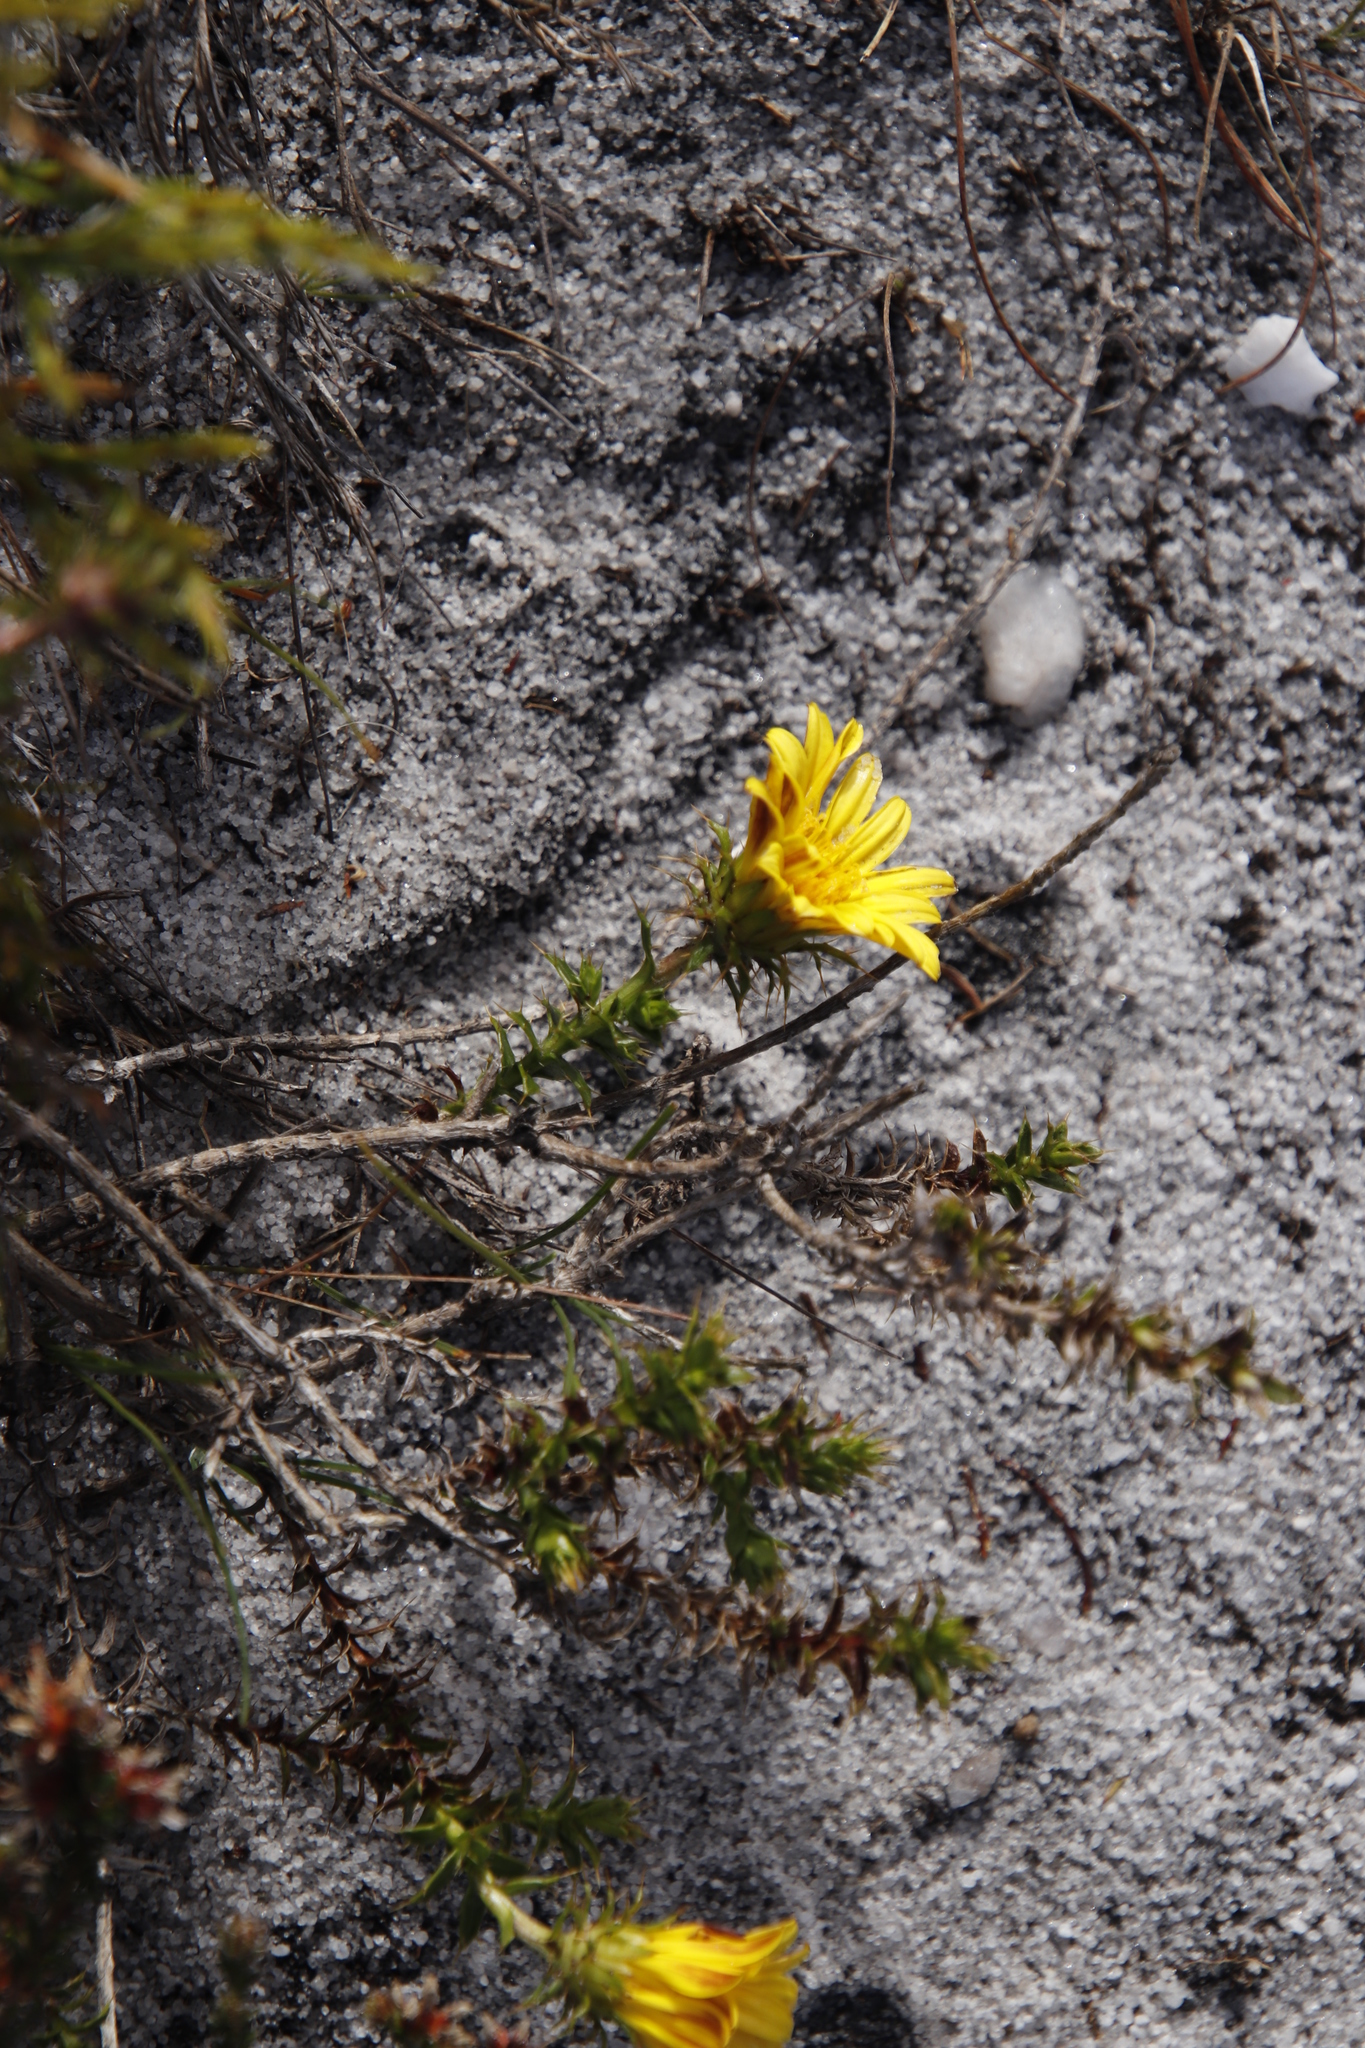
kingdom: Plantae
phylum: Tracheophyta
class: Magnoliopsida
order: Asterales
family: Asteraceae
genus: Cullumia
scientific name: Cullumia setosa
